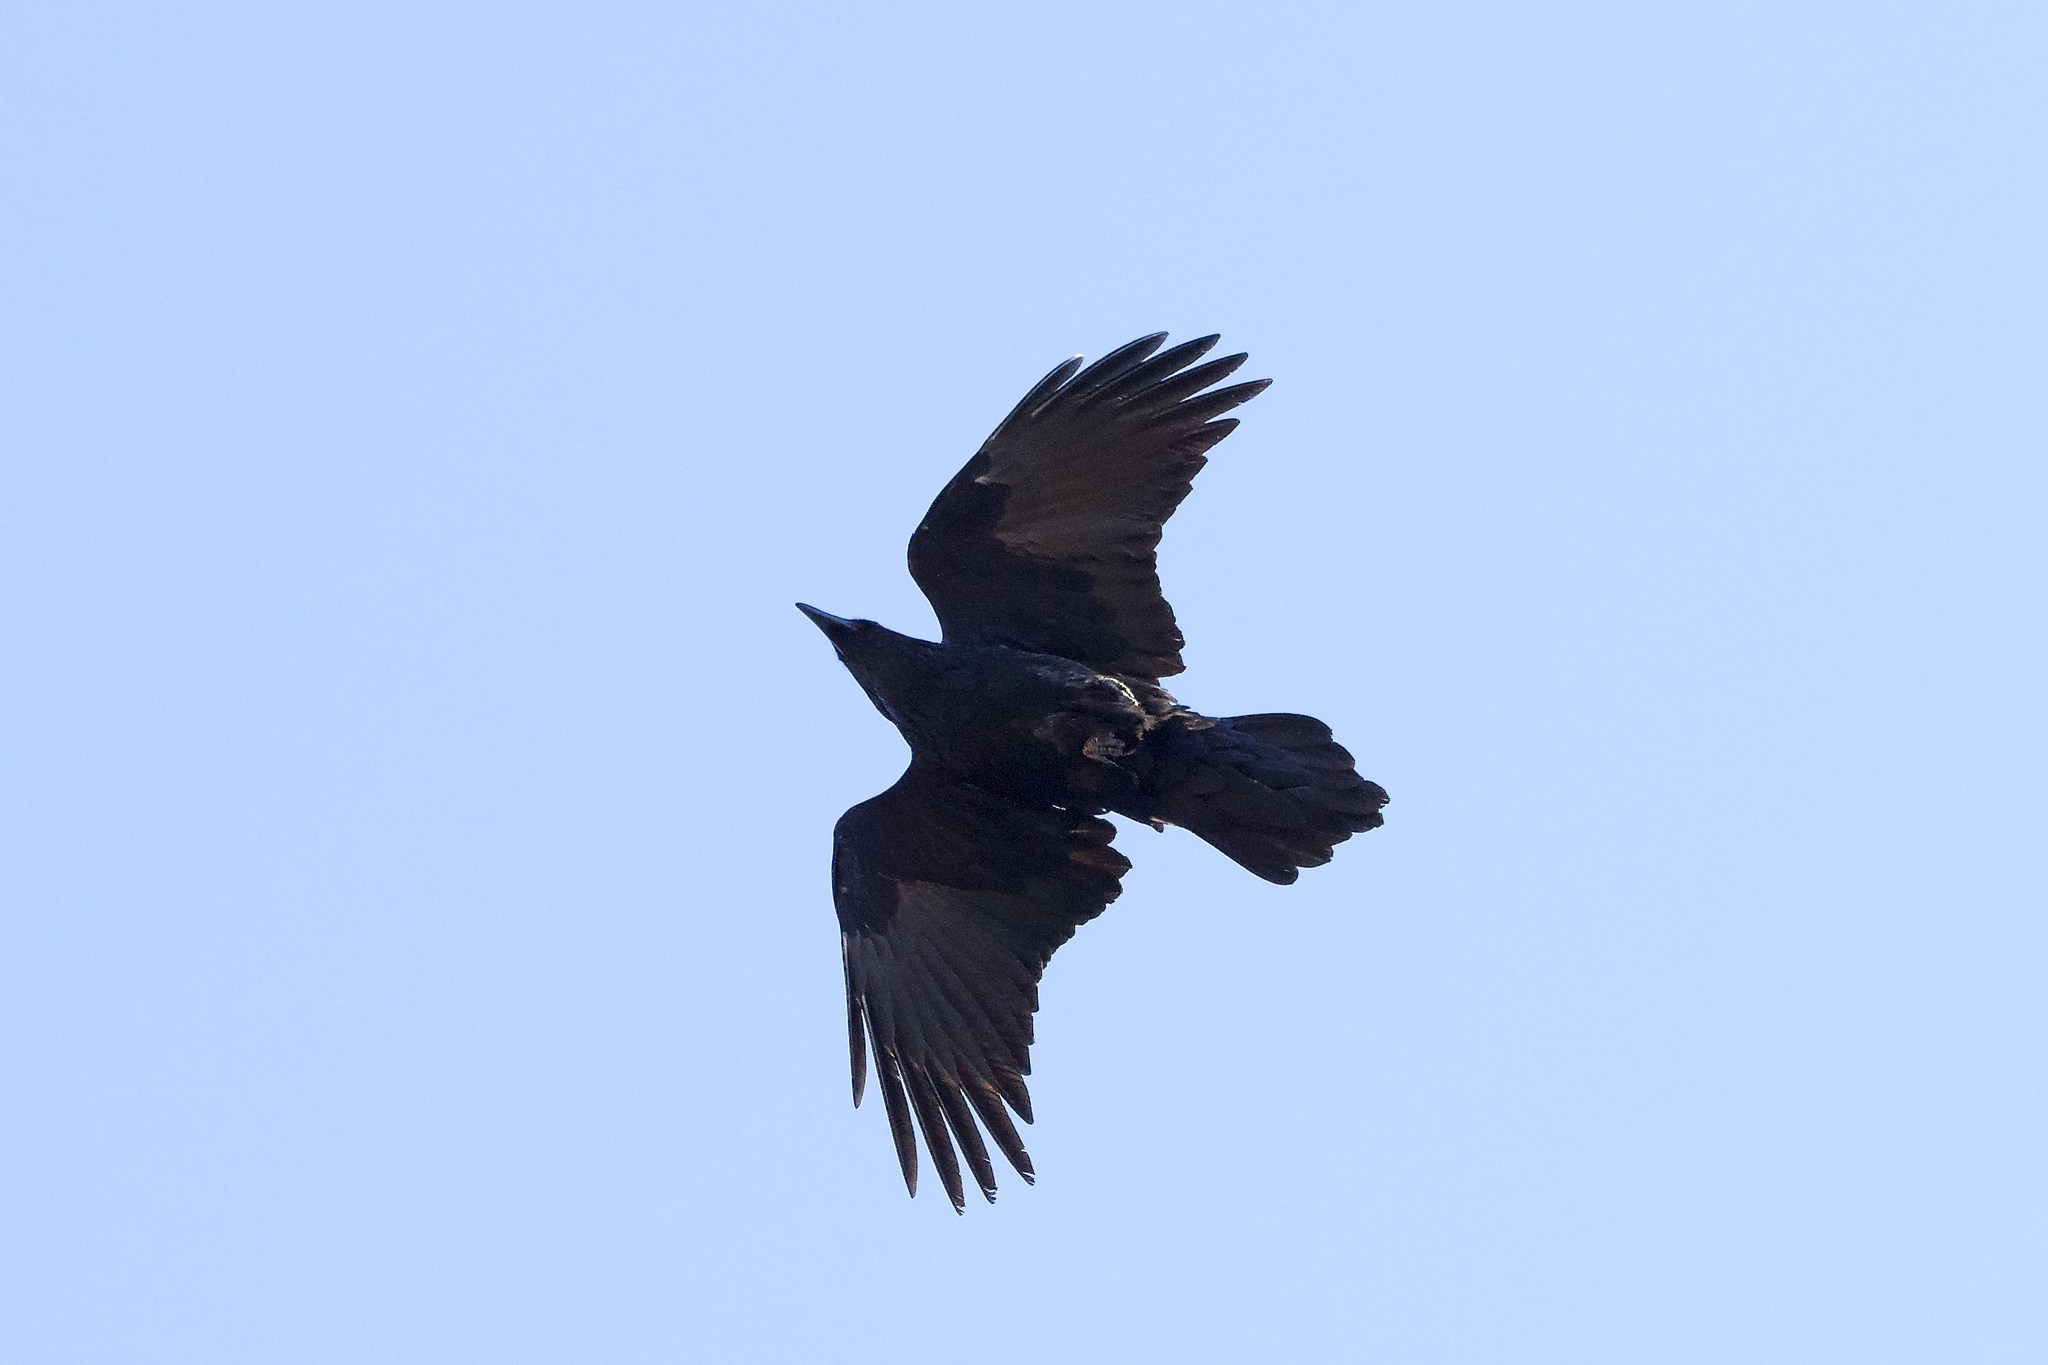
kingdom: Animalia
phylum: Chordata
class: Aves
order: Passeriformes
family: Corvidae
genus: Corvus
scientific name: Corvus corax
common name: Common raven
